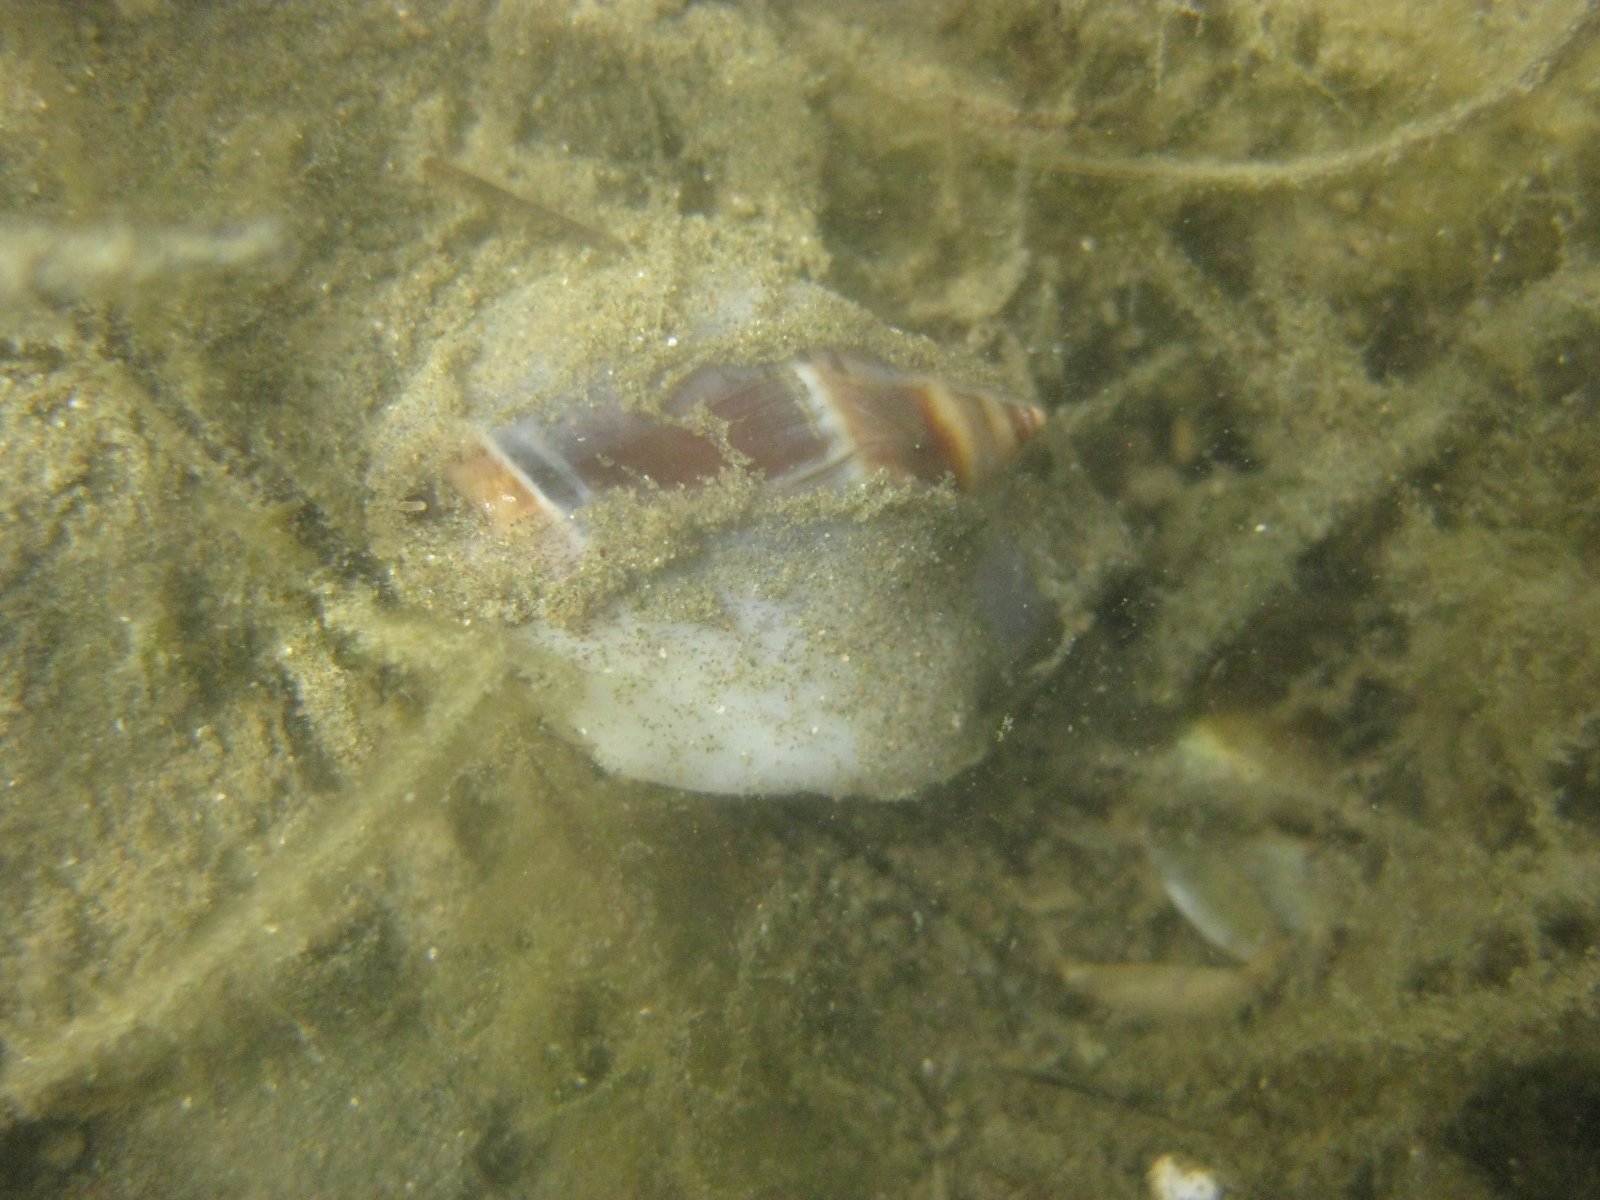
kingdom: Animalia
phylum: Mollusca
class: Gastropoda
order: Neogastropoda
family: Ancillariidae
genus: Amalda
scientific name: Amalda australis
